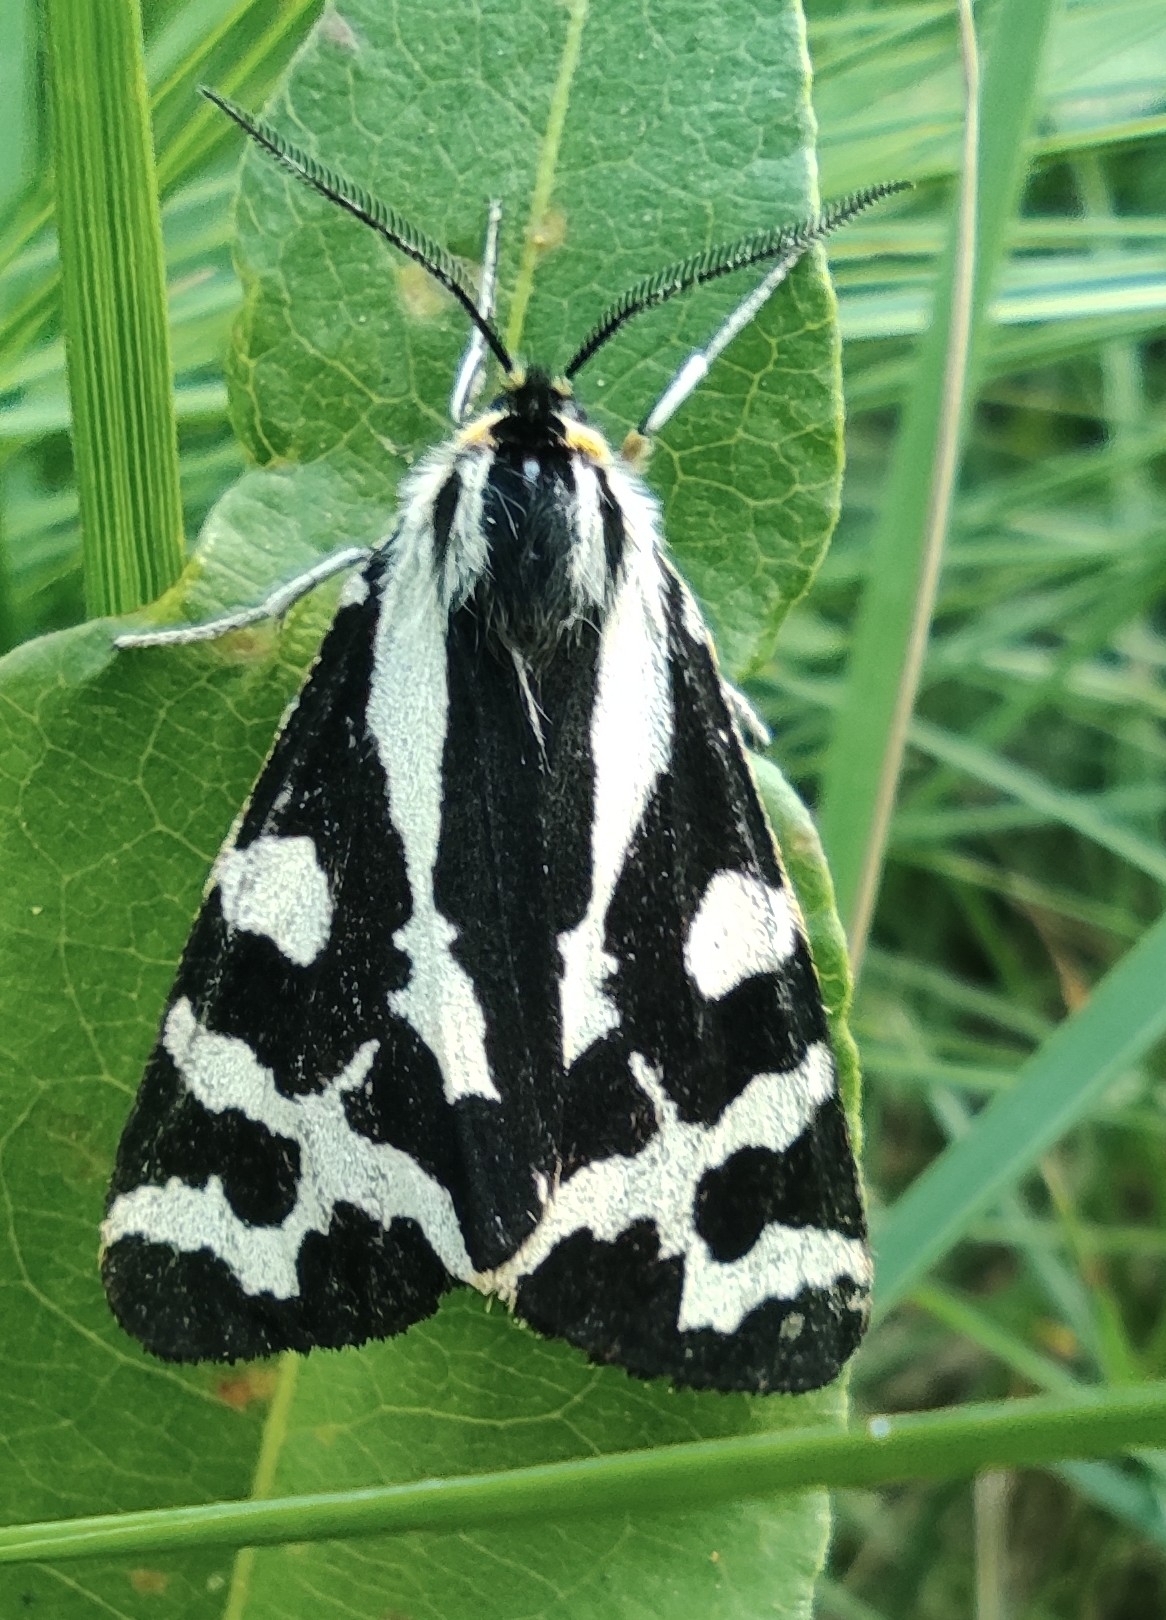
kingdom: Animalia
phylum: Arthropoda
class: Insecta
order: Lepidoptera
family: Erebidae
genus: Parasemia
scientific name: Parasemia plantaginis
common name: Wood tiger
